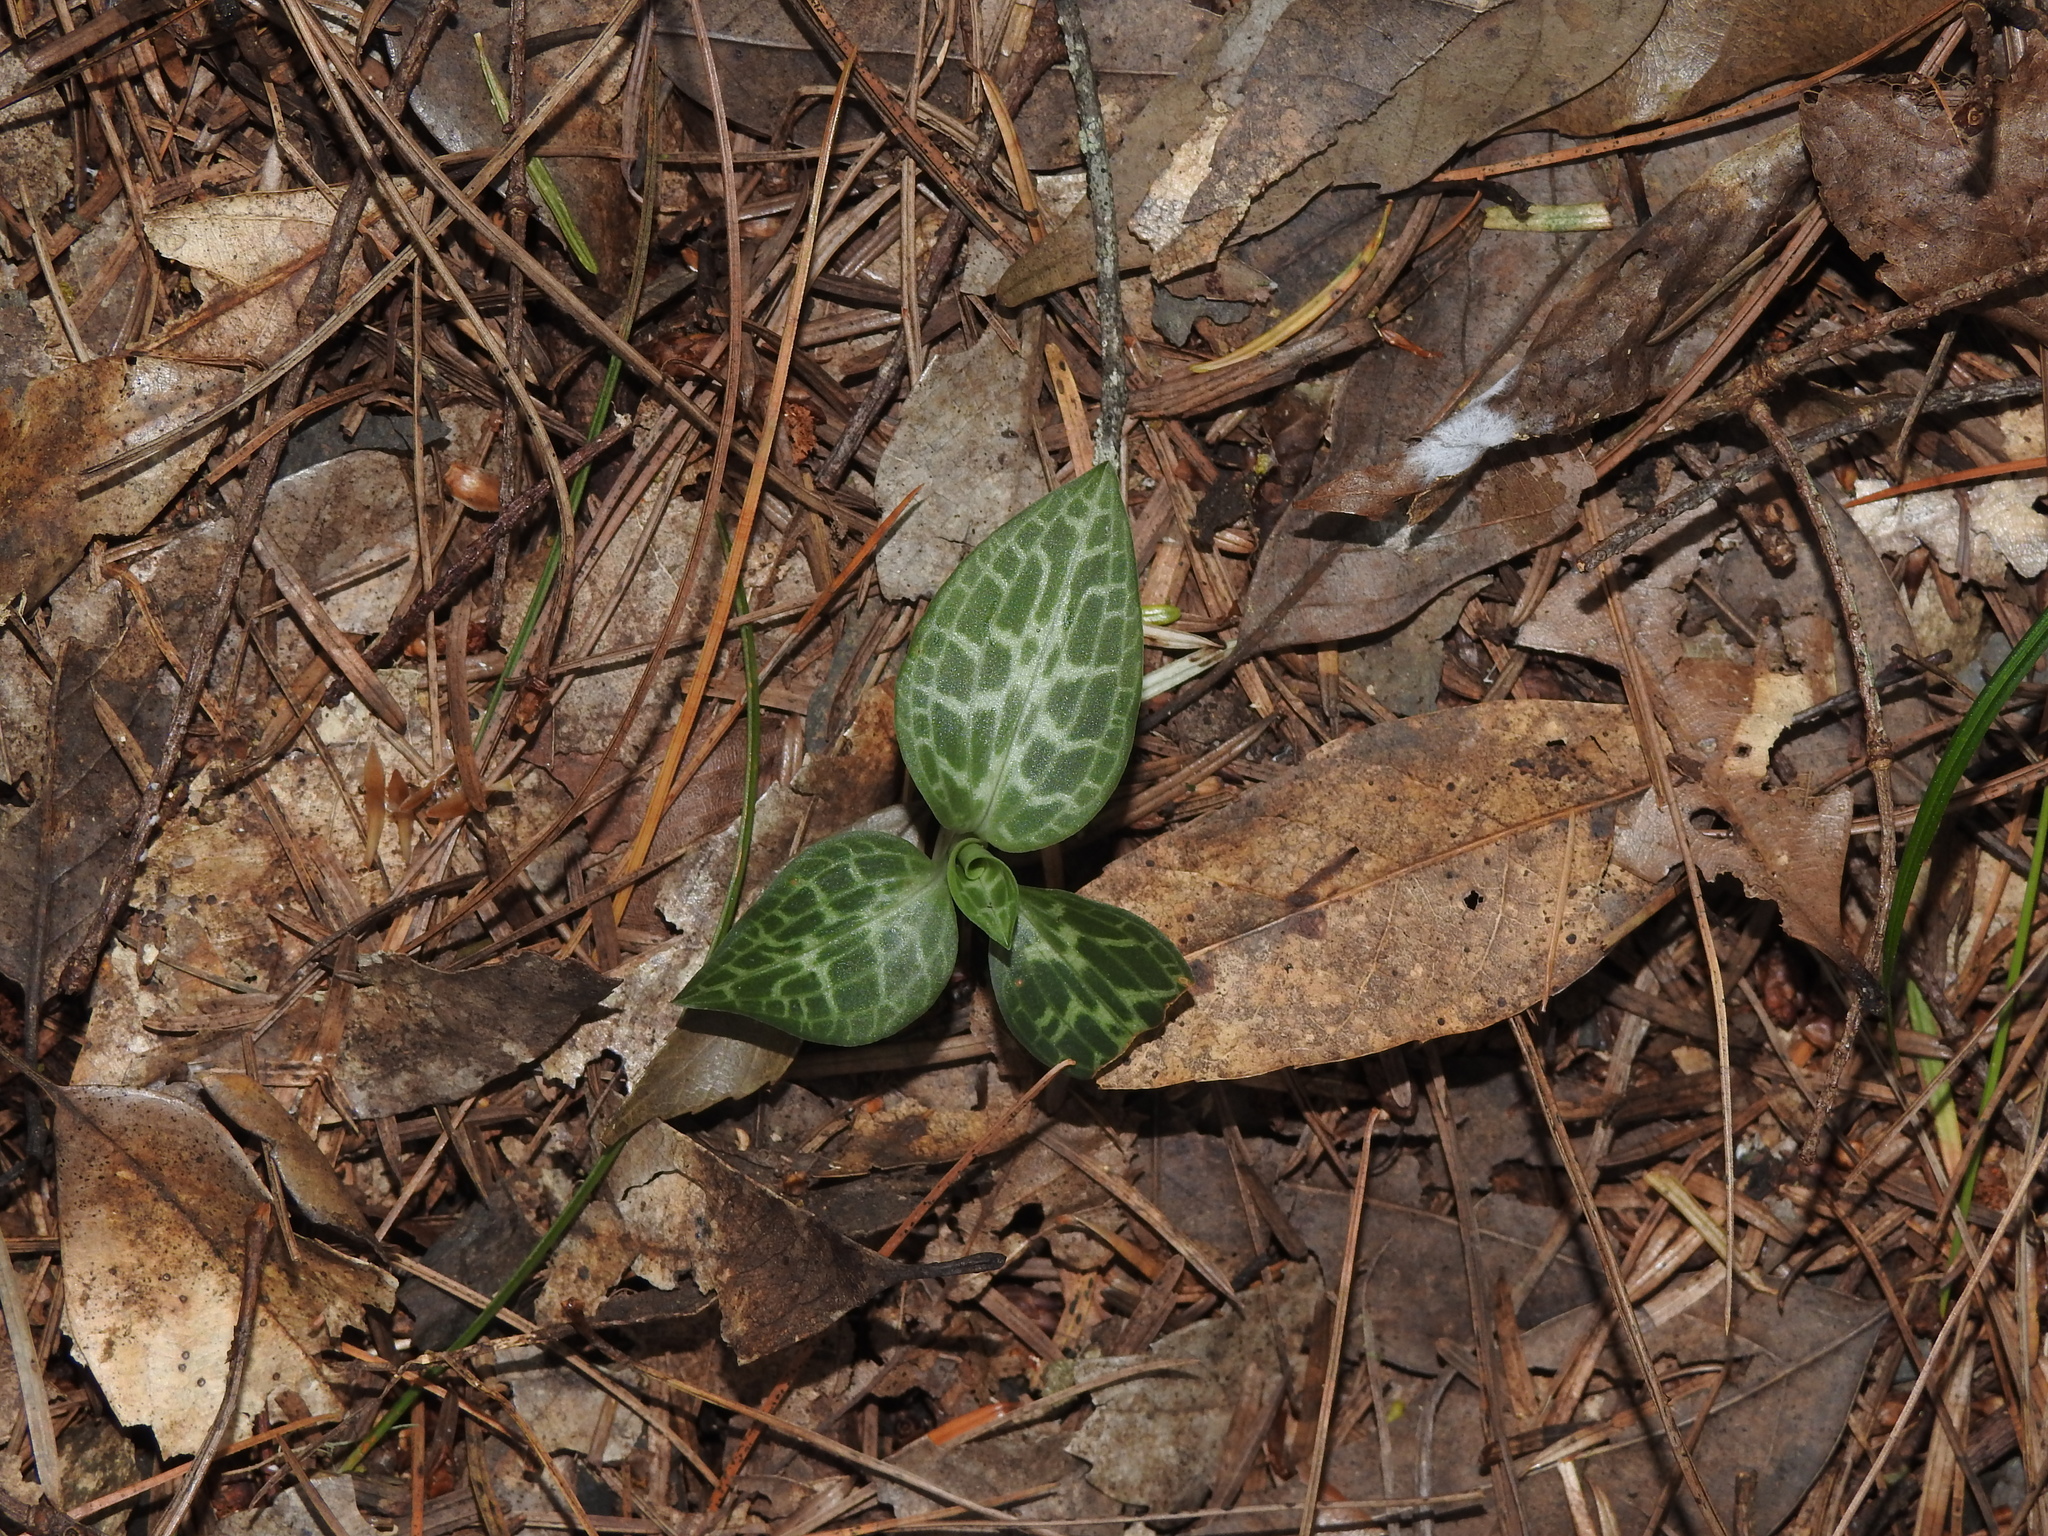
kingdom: Plantae
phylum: Tracheophyta
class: Liliopsida
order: Asparagales
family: Orchidaceae
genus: Goodyera
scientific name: Goodyera schlechtendaliana
